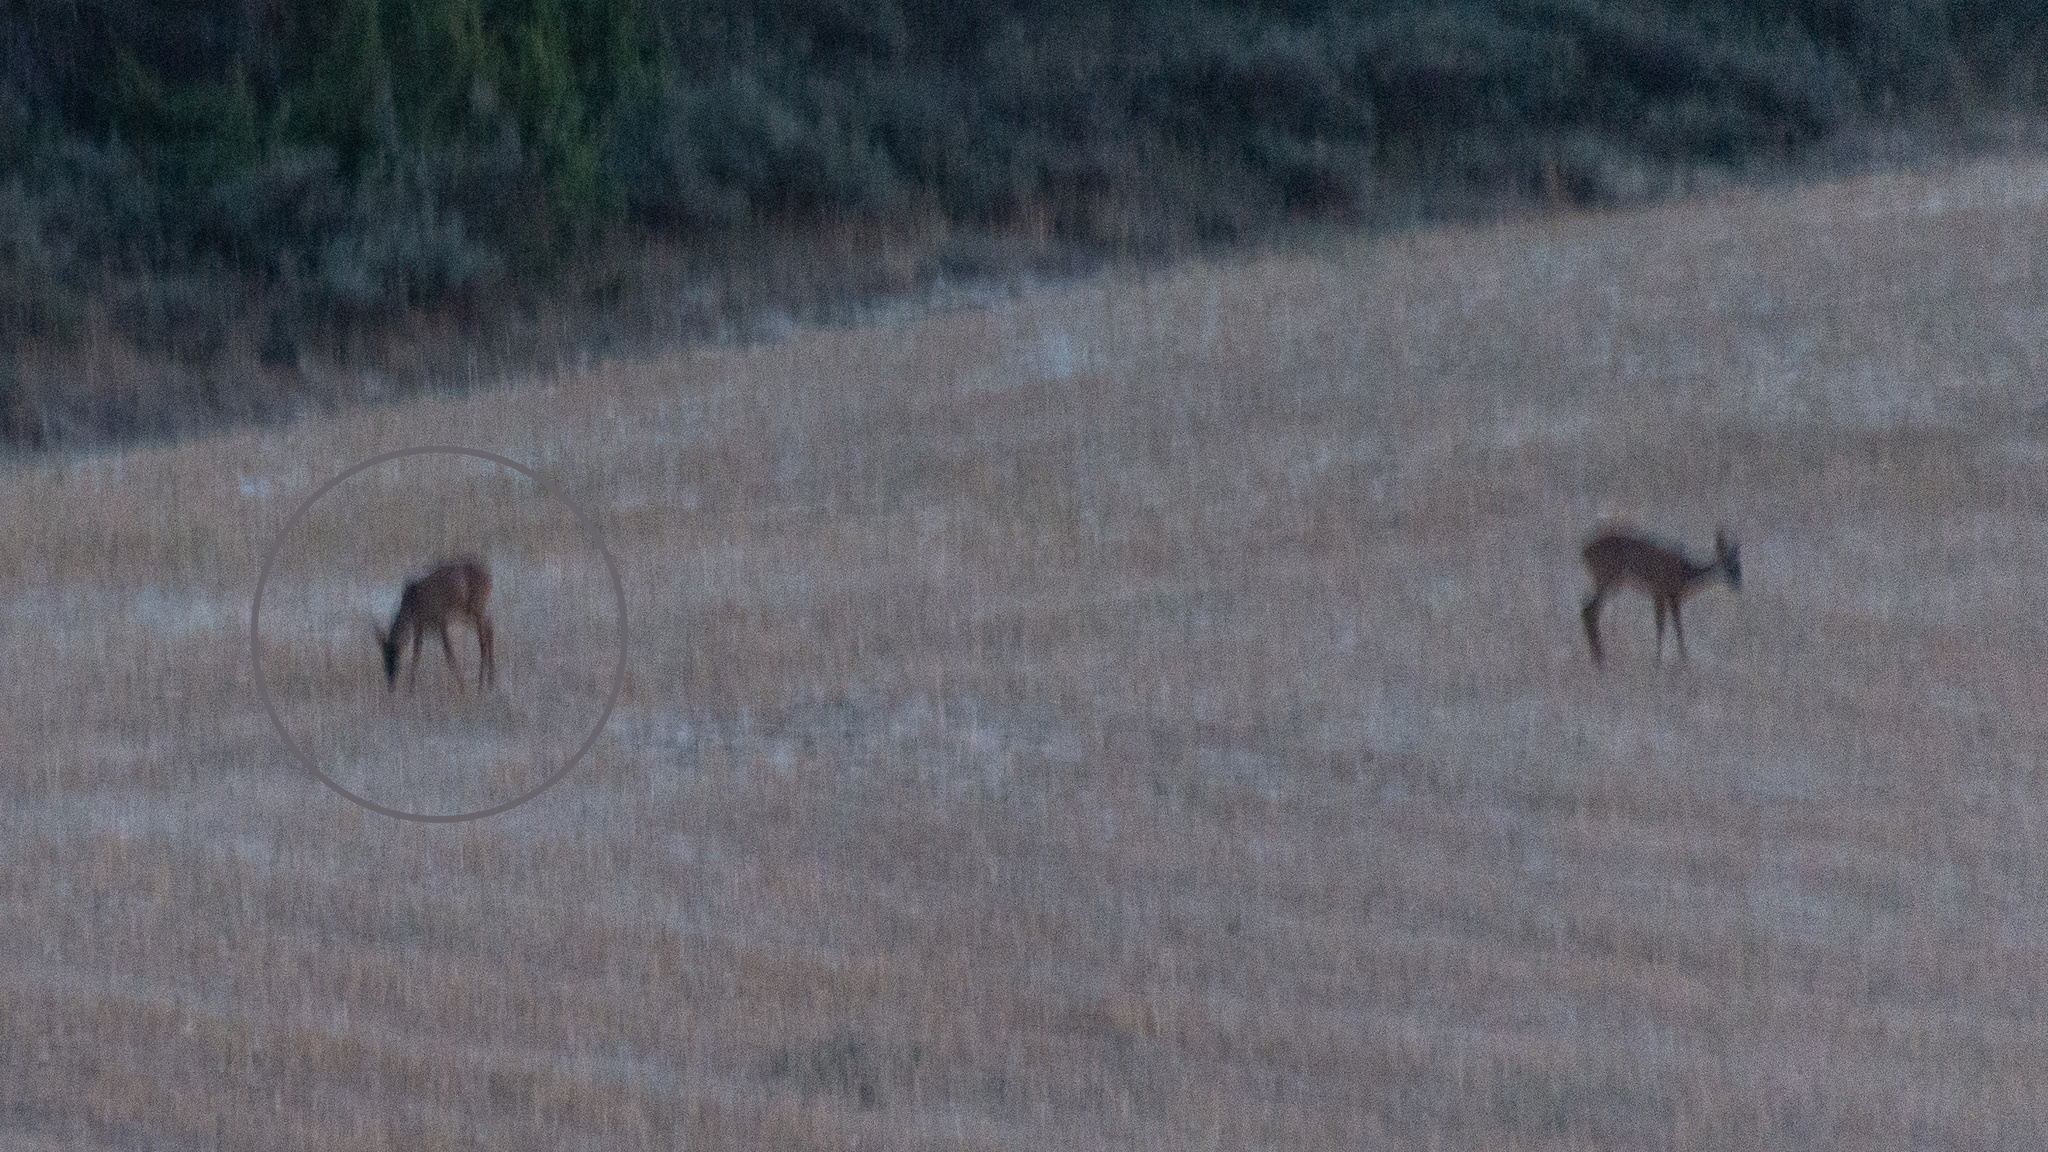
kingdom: Animalia
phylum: Chordata
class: Mammalia
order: Artiodactyla
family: Cervidae
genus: Capreolus
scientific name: Capreolus capreolus
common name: Western roe deer
